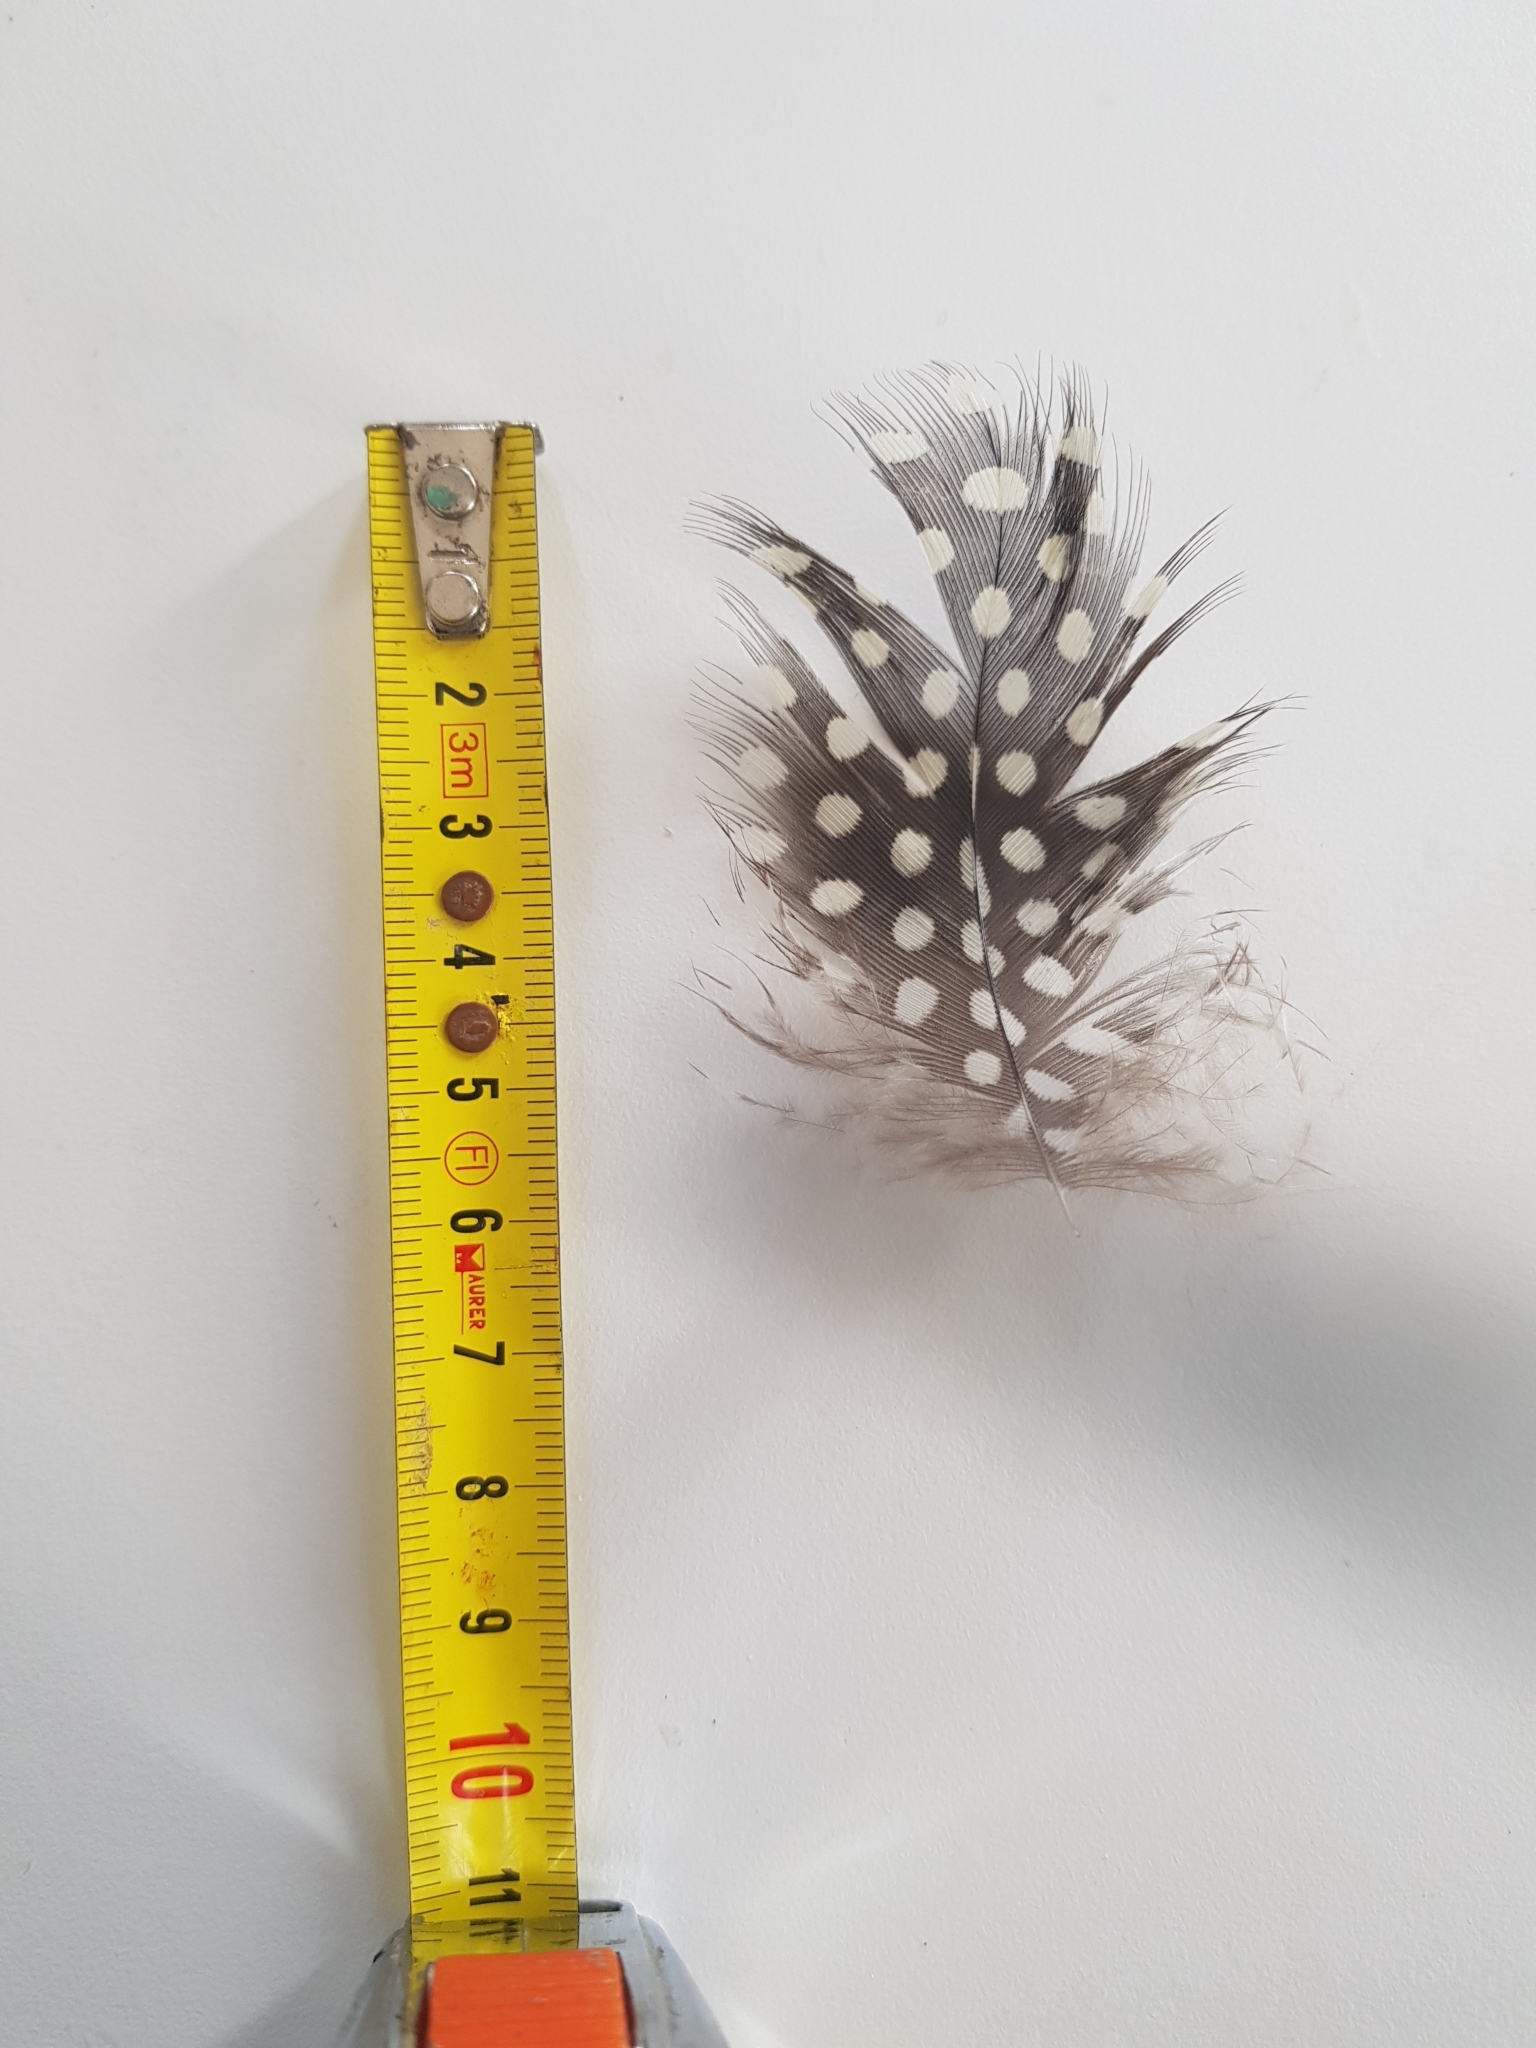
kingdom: Animalia
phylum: Chordata
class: Aves
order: Galliformes
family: Numididae
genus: Numida
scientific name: Numida meleagris
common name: Helmeted guineafowl
